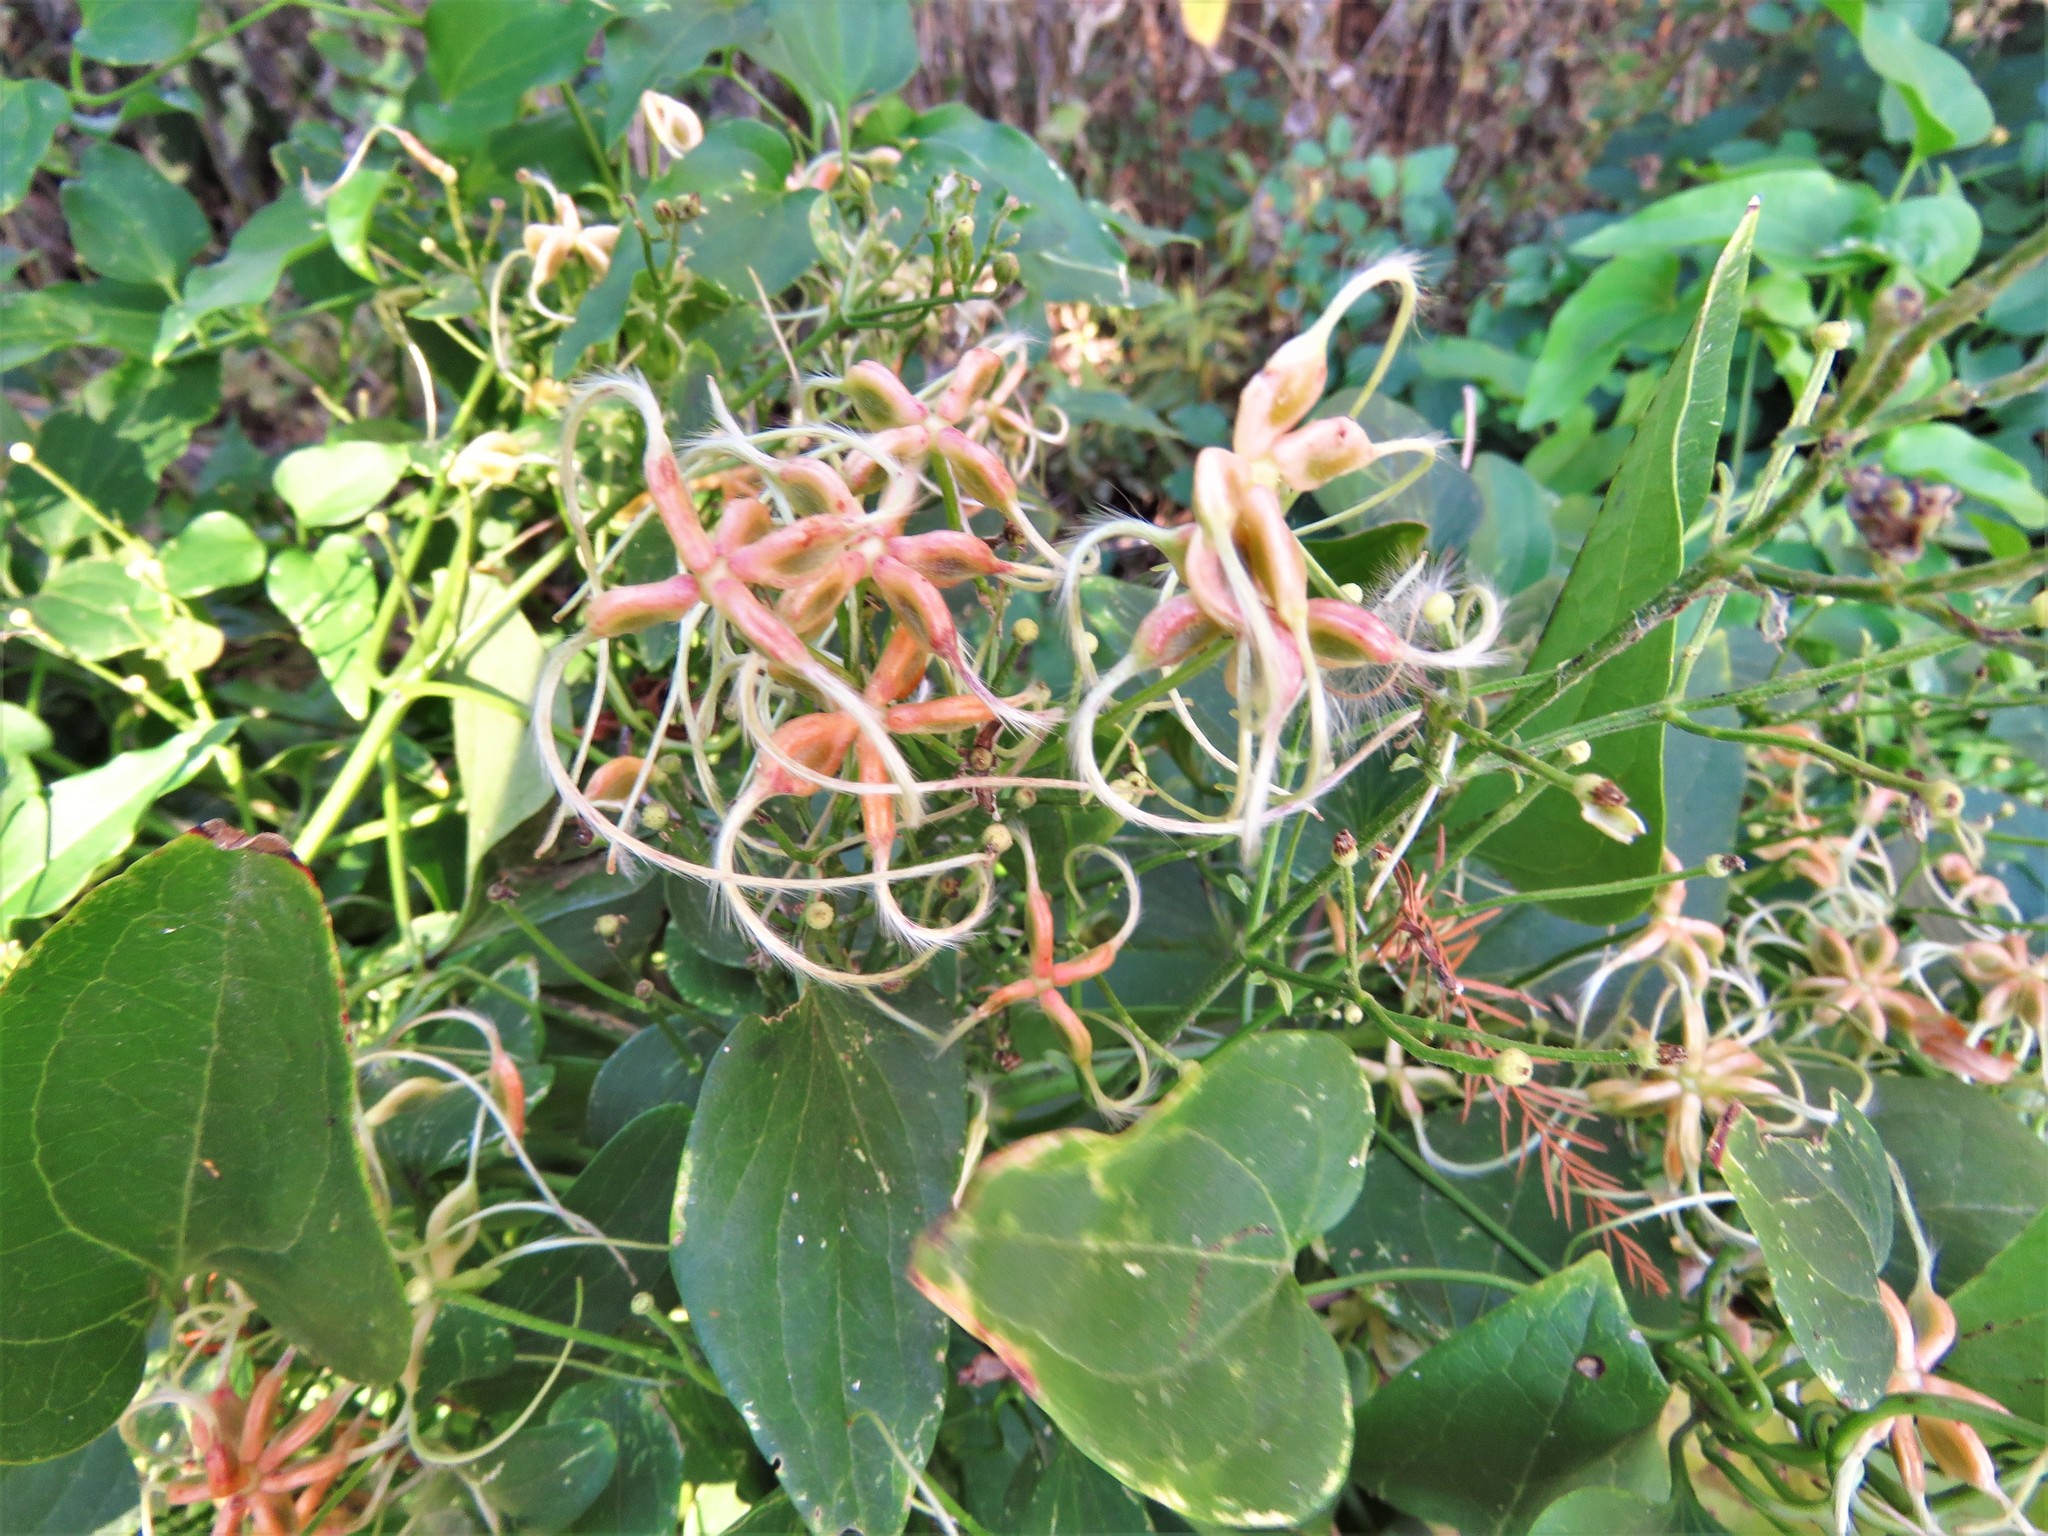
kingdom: Plantae
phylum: Tracheophyta
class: Magnoliopsida
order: Ranunculales
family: Ranunculaceae
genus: Clematis
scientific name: Clematis terniflora
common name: Sweet autumn clematis
